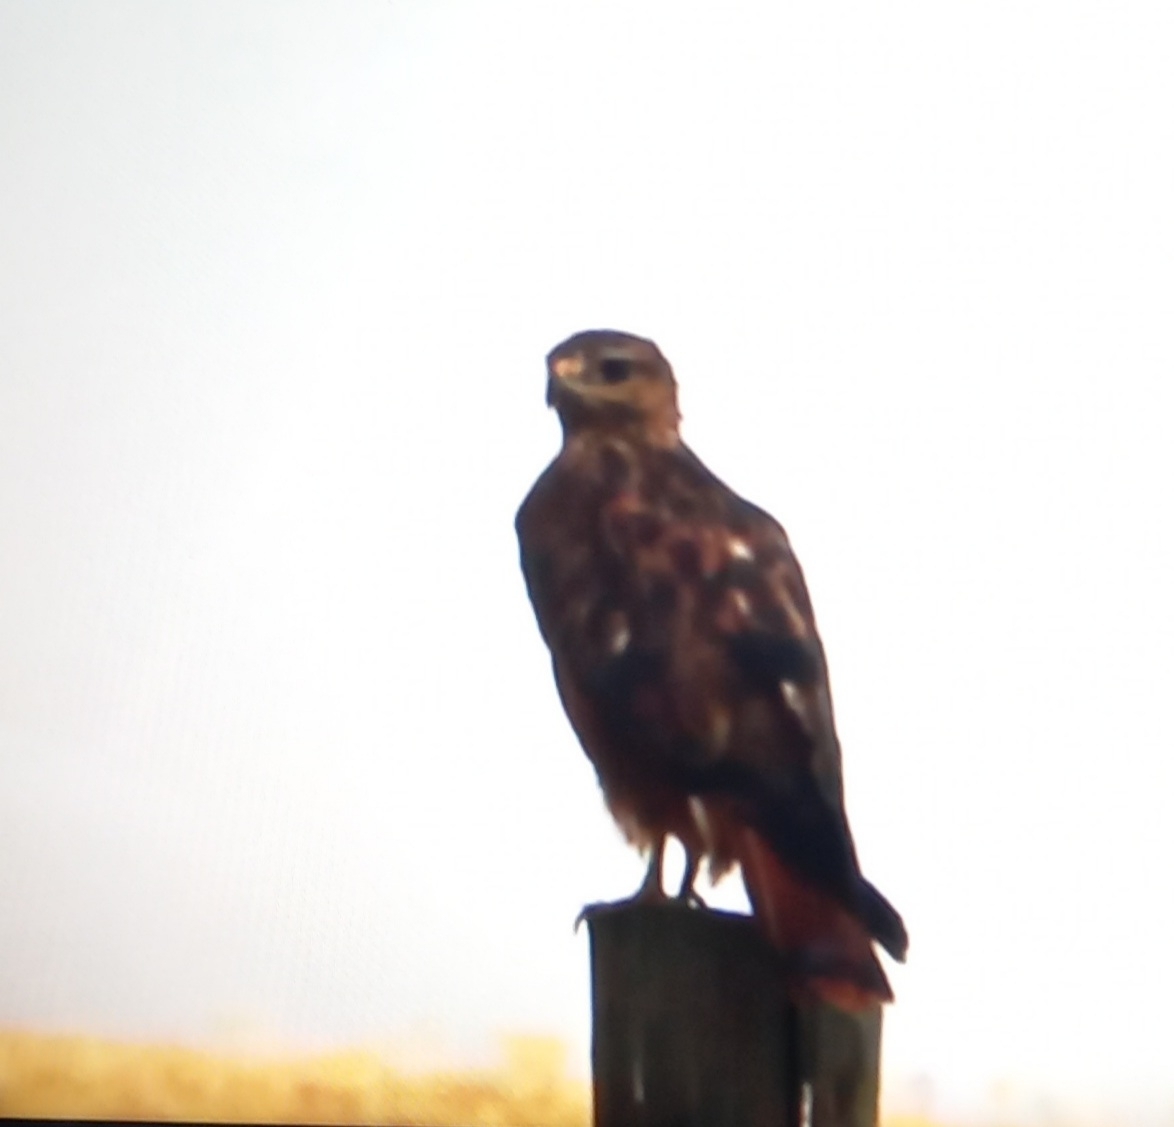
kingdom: Animalia
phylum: Chordata
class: Aves
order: Accipitriformes
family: Accipitridae
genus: Buteo
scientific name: Buteo rufinus
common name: Long-legged buzzard
